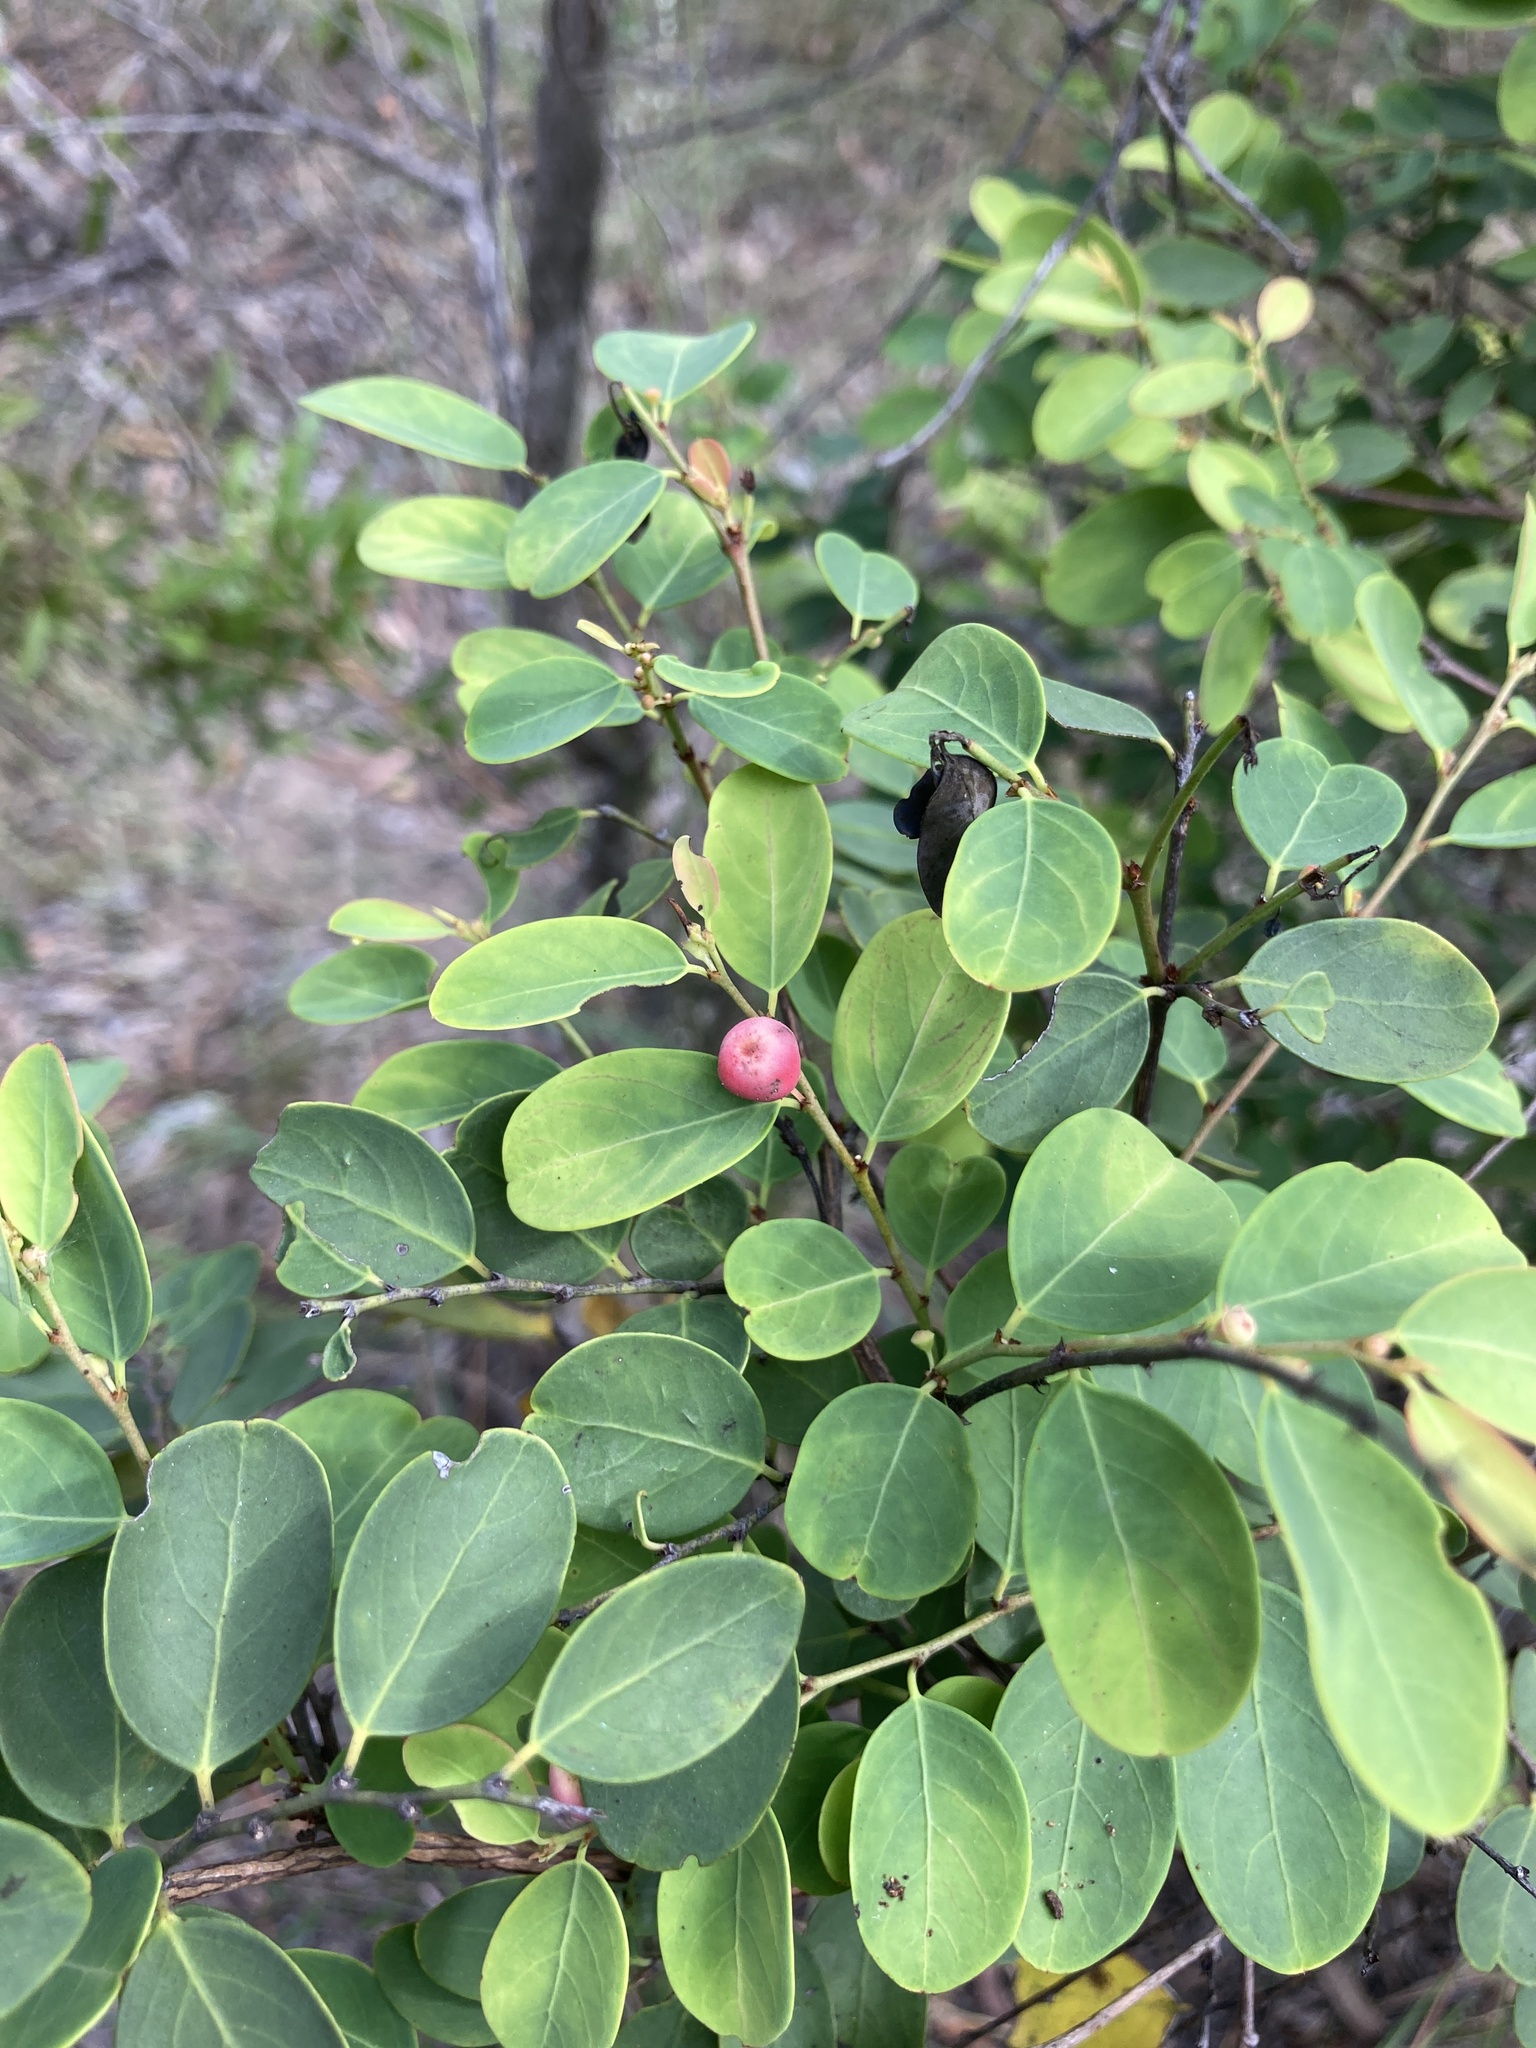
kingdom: Plantae
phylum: Tracheophyta
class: Magnoliopsida
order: Malpighiales
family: Phyllanthaceae
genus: Breynia
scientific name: Breynia oblongifolia
